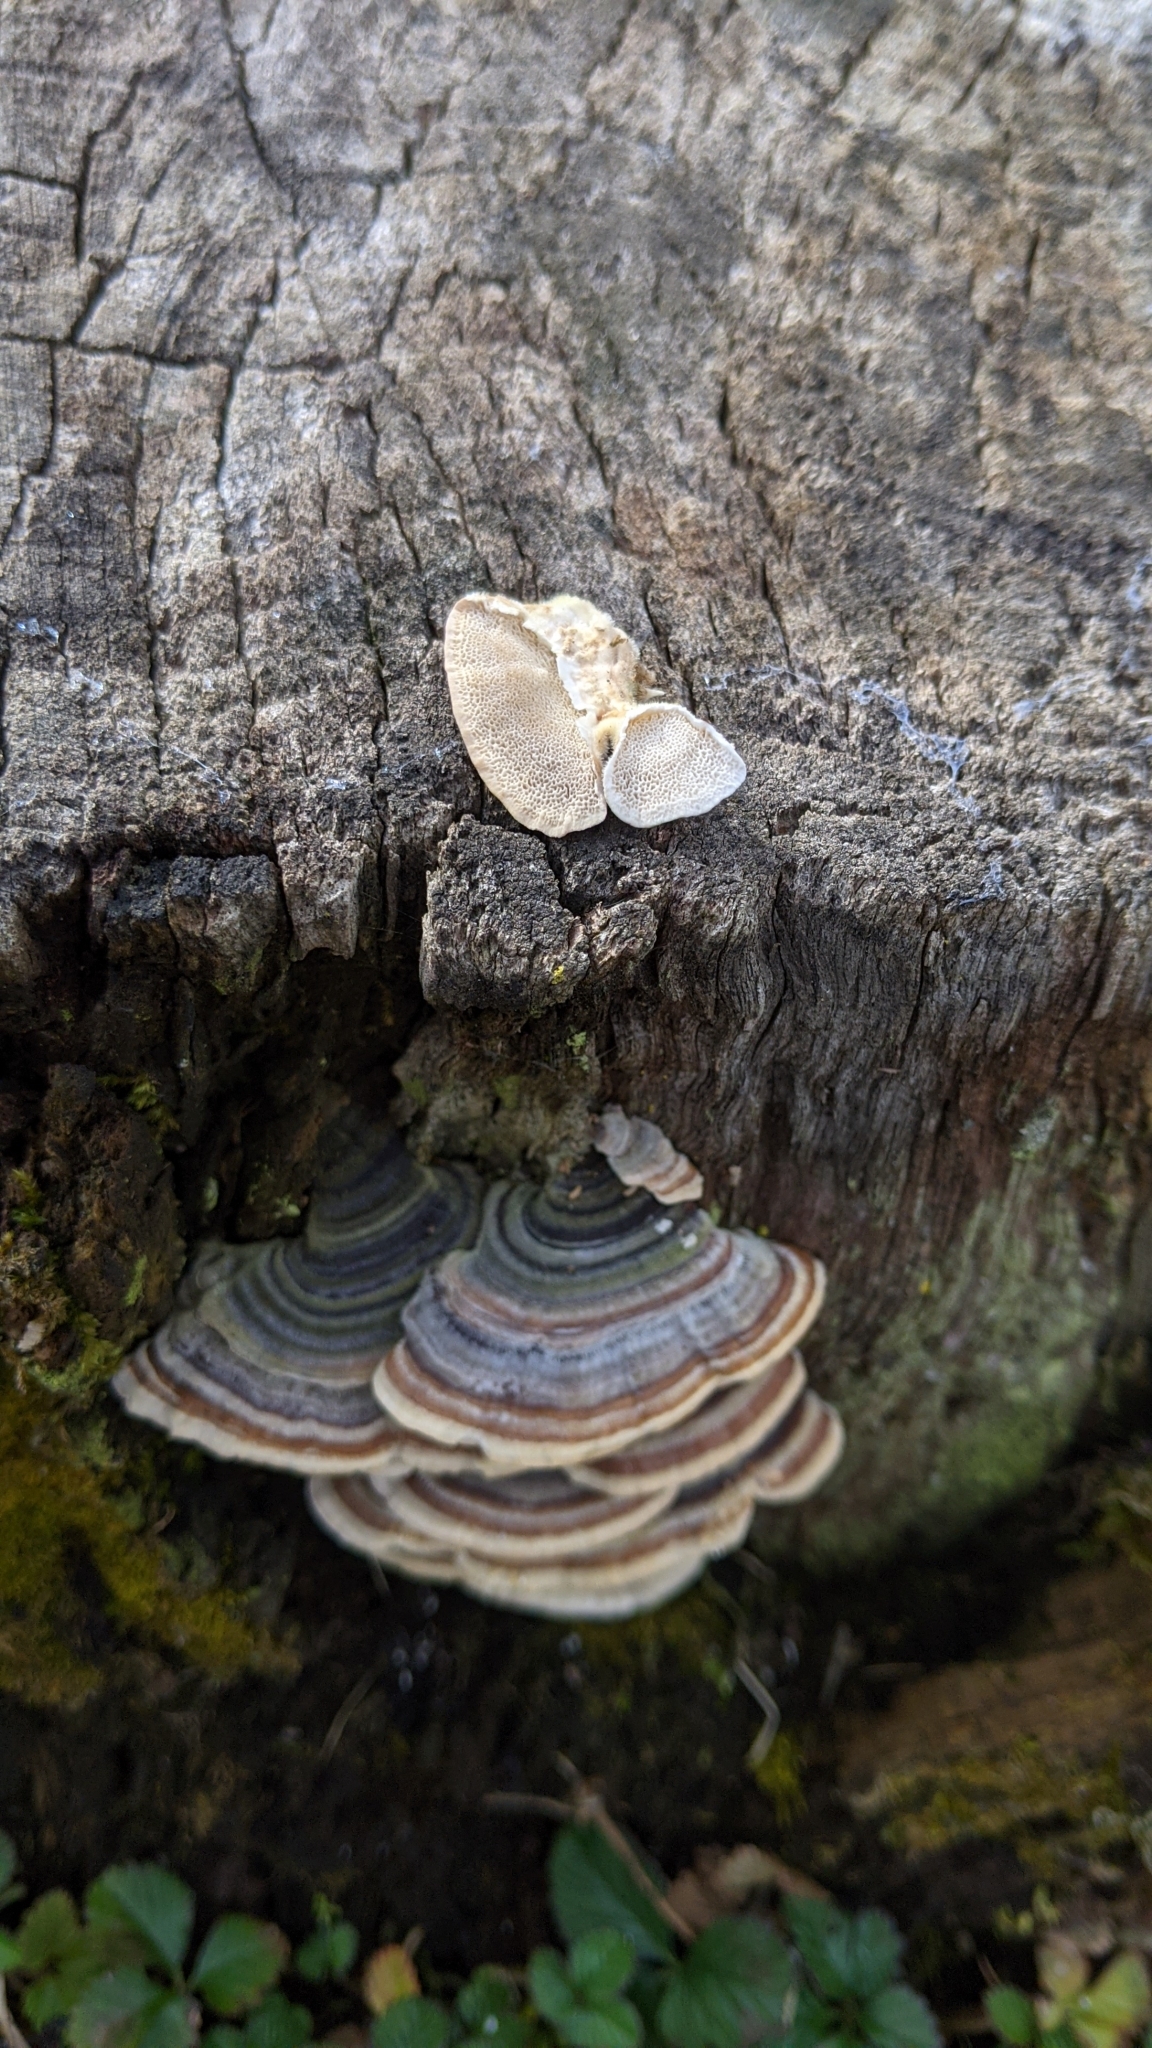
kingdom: Fungi
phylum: Basidiomycota
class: Agaricomycetes
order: Polyporales
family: Polyporaceae
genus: Trametes
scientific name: Trametes versicolor
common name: Turkeytail
